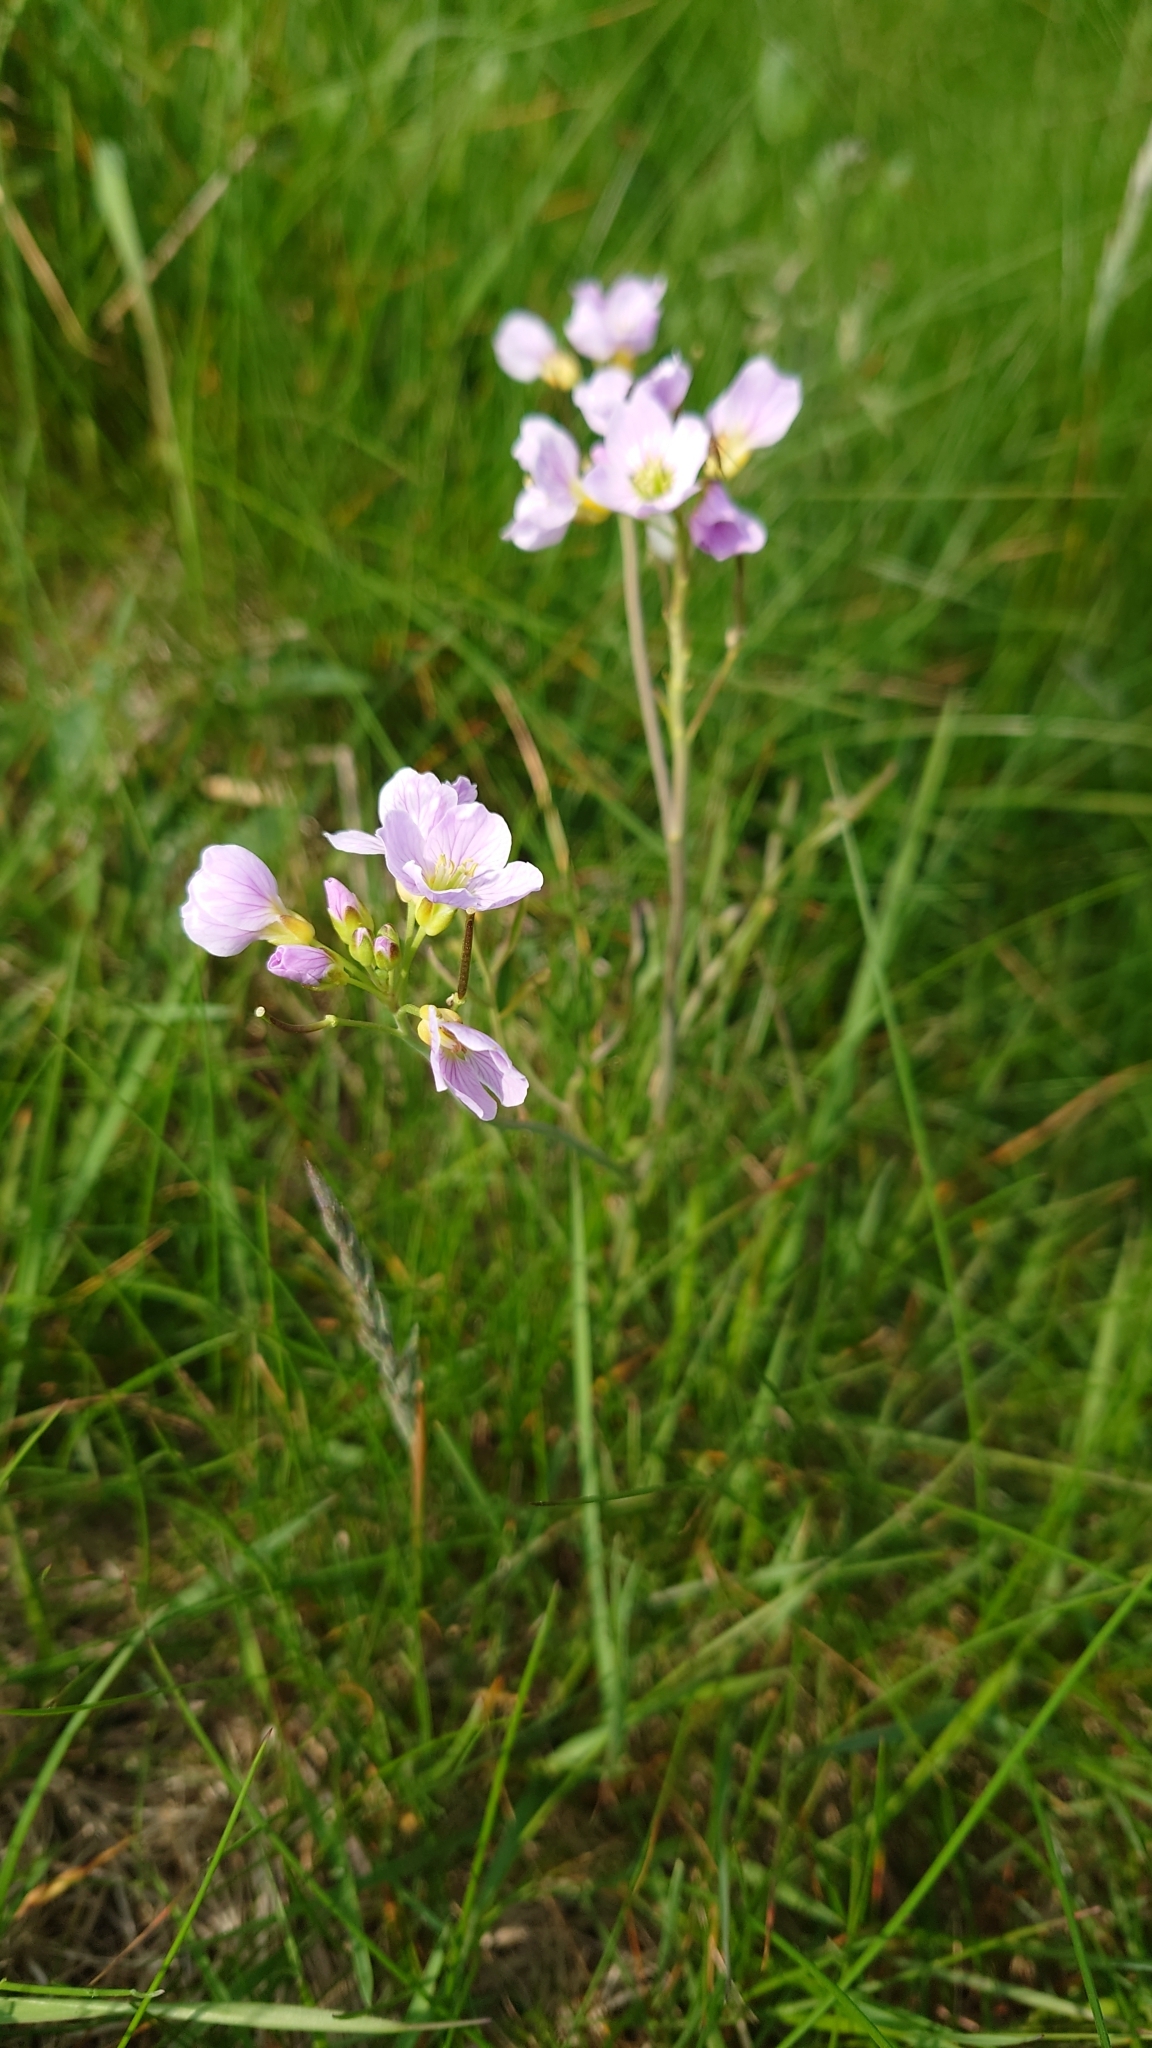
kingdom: Plantae
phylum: Tracheophyta
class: Magnoliopsida
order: Brassicales
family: Brassicaceae
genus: Cardamine
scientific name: Cardamine pratensis
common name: Cuckoo flower
